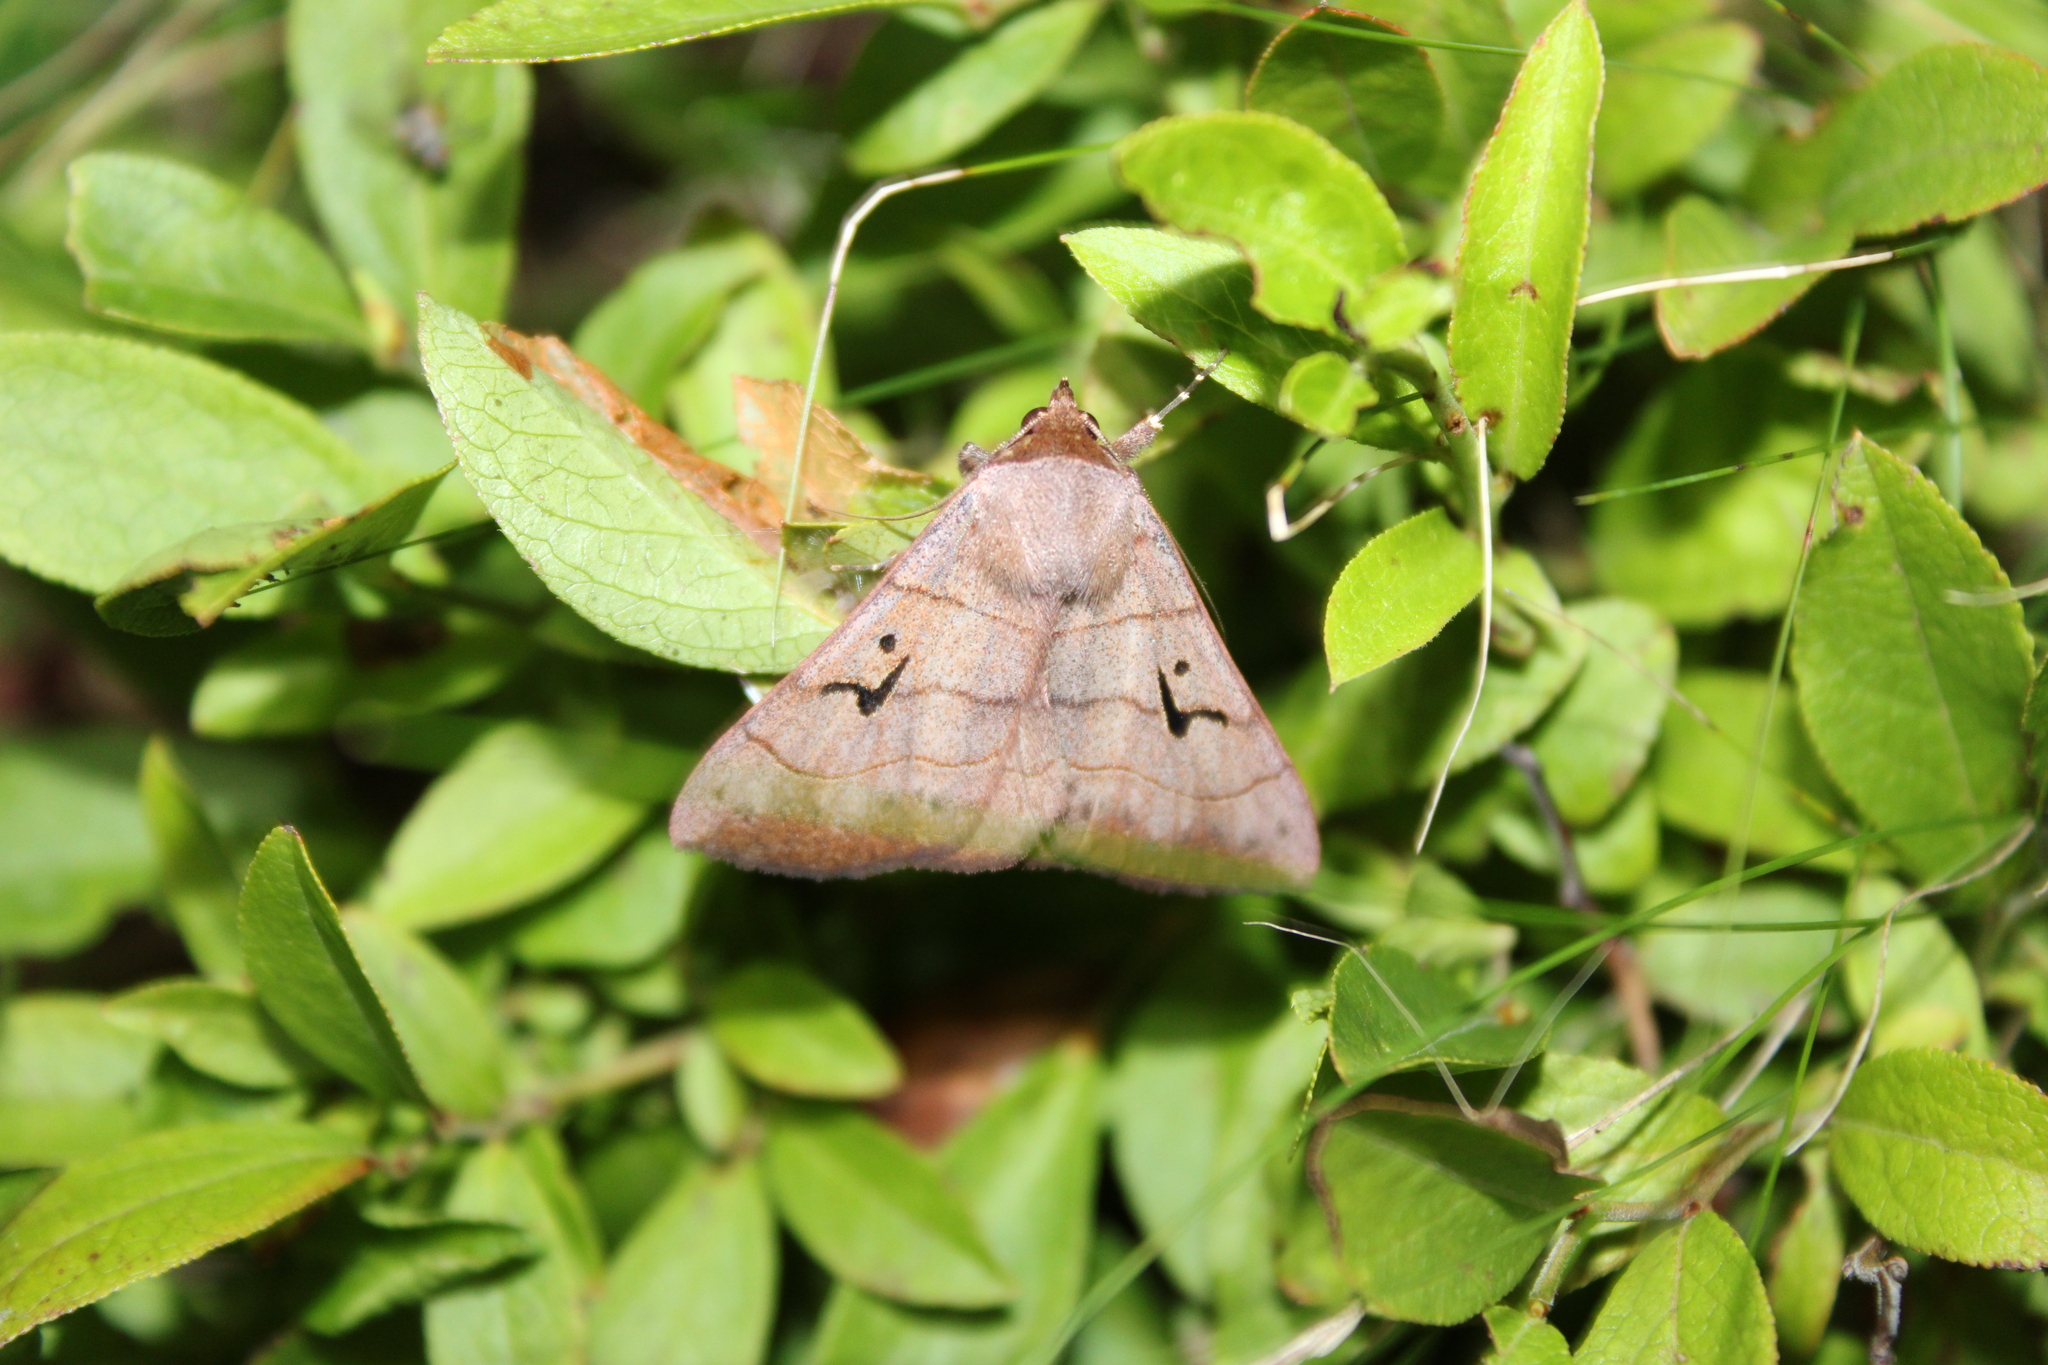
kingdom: Animalia
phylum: Arthropoda
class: Insecta
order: Lepidoptera
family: Erebidae
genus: Panopoda
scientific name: Panopoda carneicosta
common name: Brown panopoda moth
